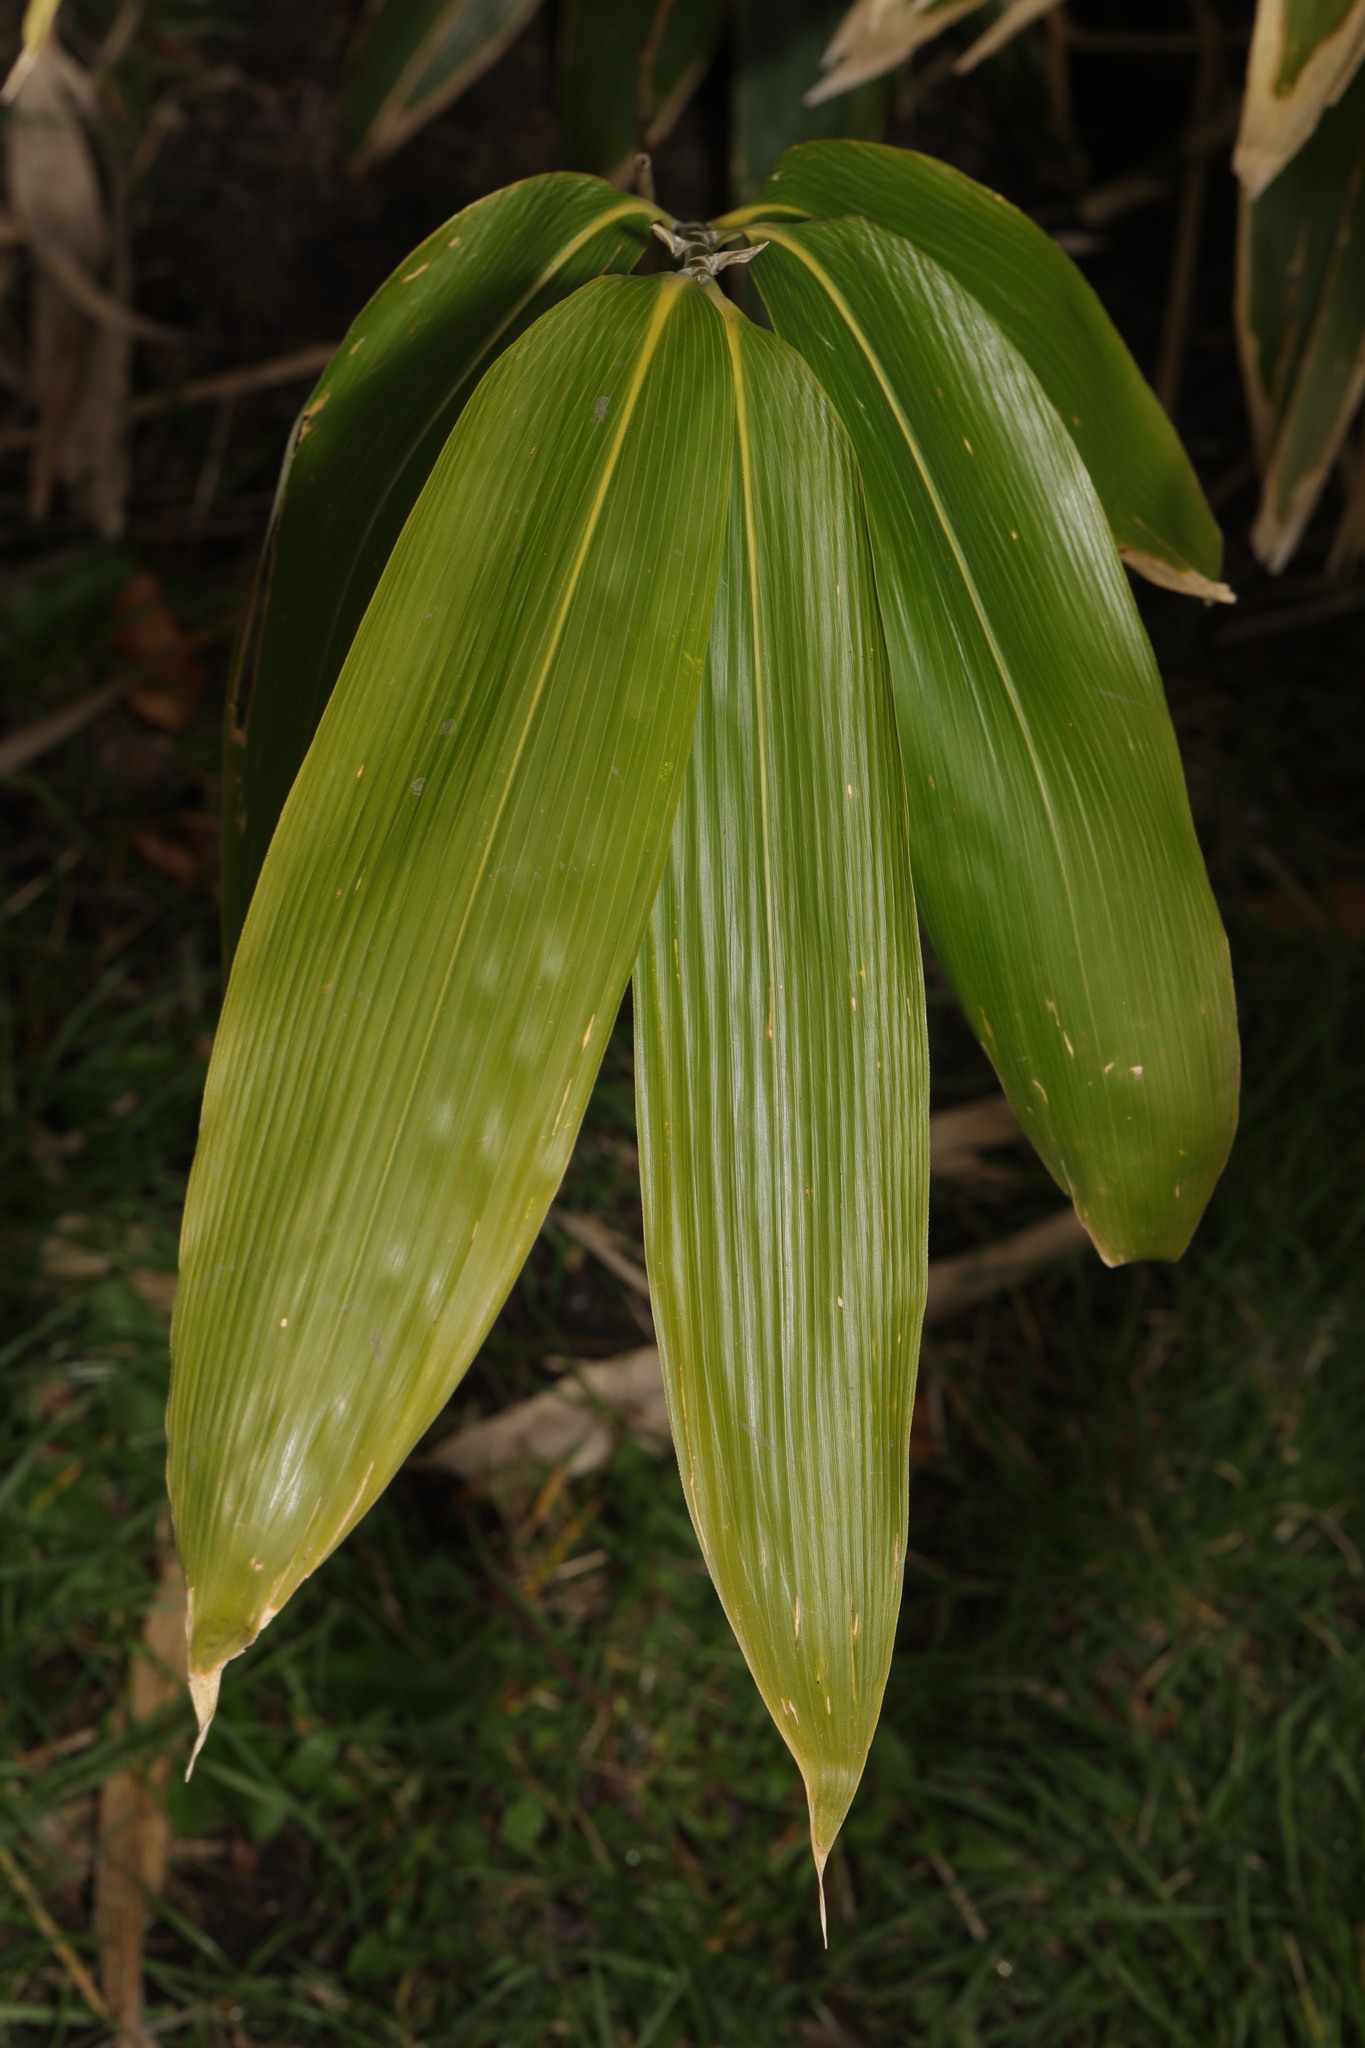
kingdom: Plantae
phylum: Tracheophyta
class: Liliopsida
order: Poales
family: Poaceae
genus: Sasa
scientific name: Sasa palmata
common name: Broad-leaved bamboo
